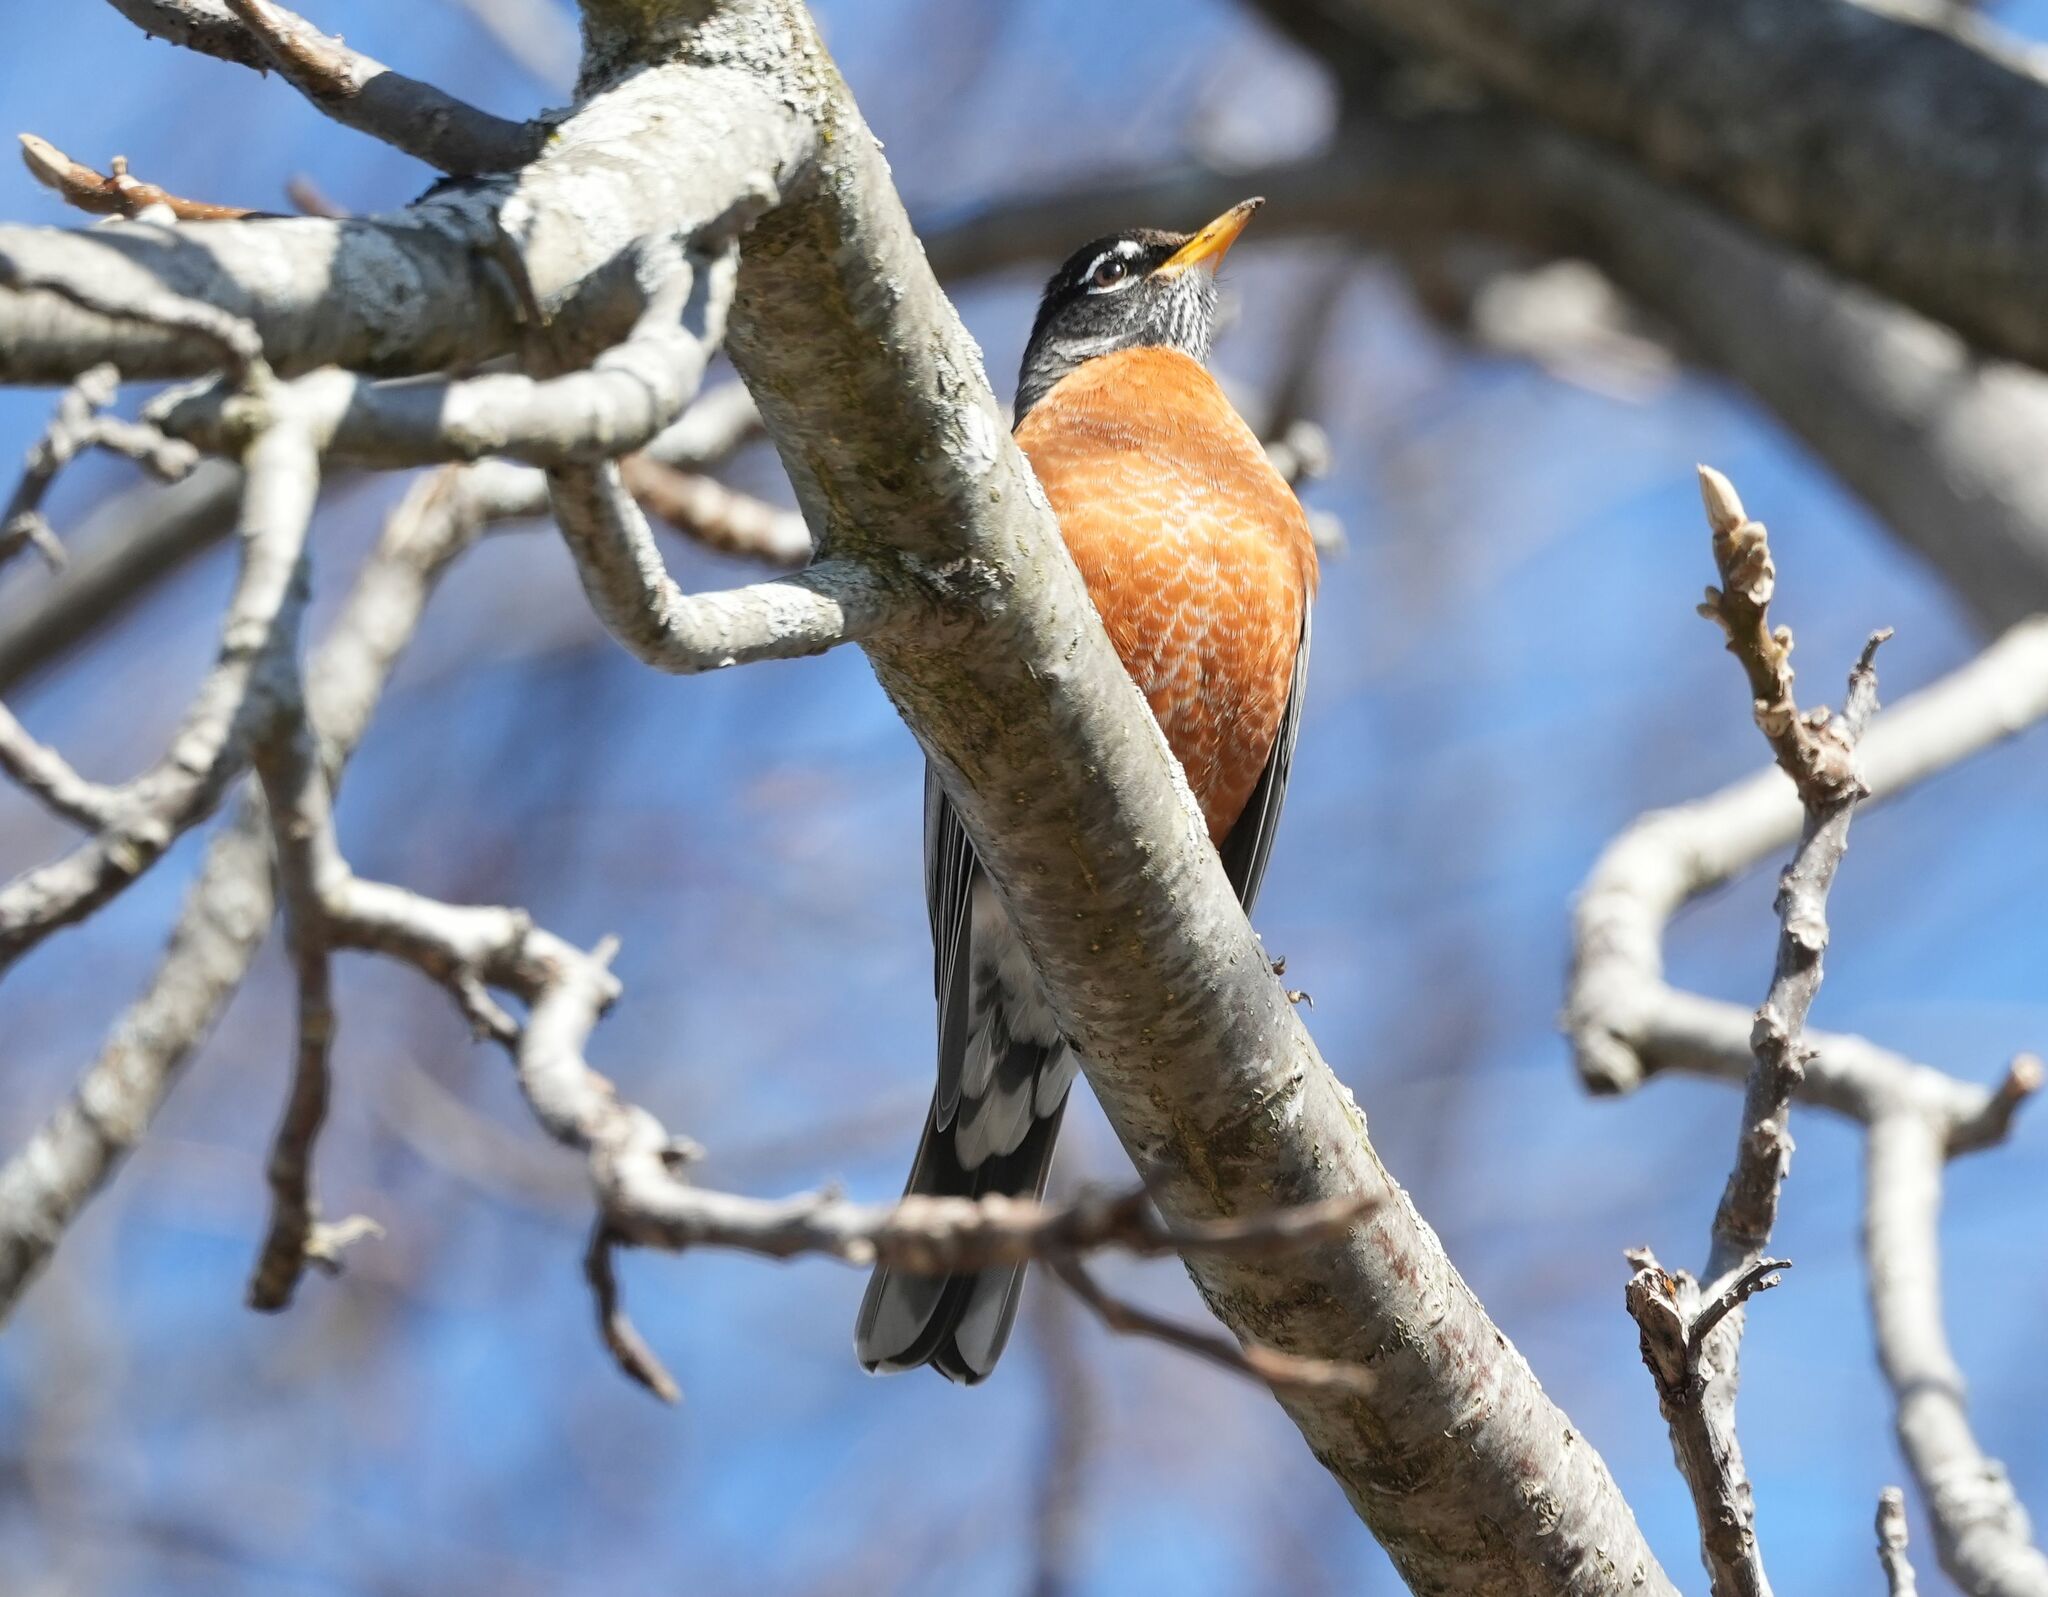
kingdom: Animalia
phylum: Chordata
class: Aves
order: Passeriformes
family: Turdidae
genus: Turdus
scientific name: Turdus migratorius
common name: American robin
